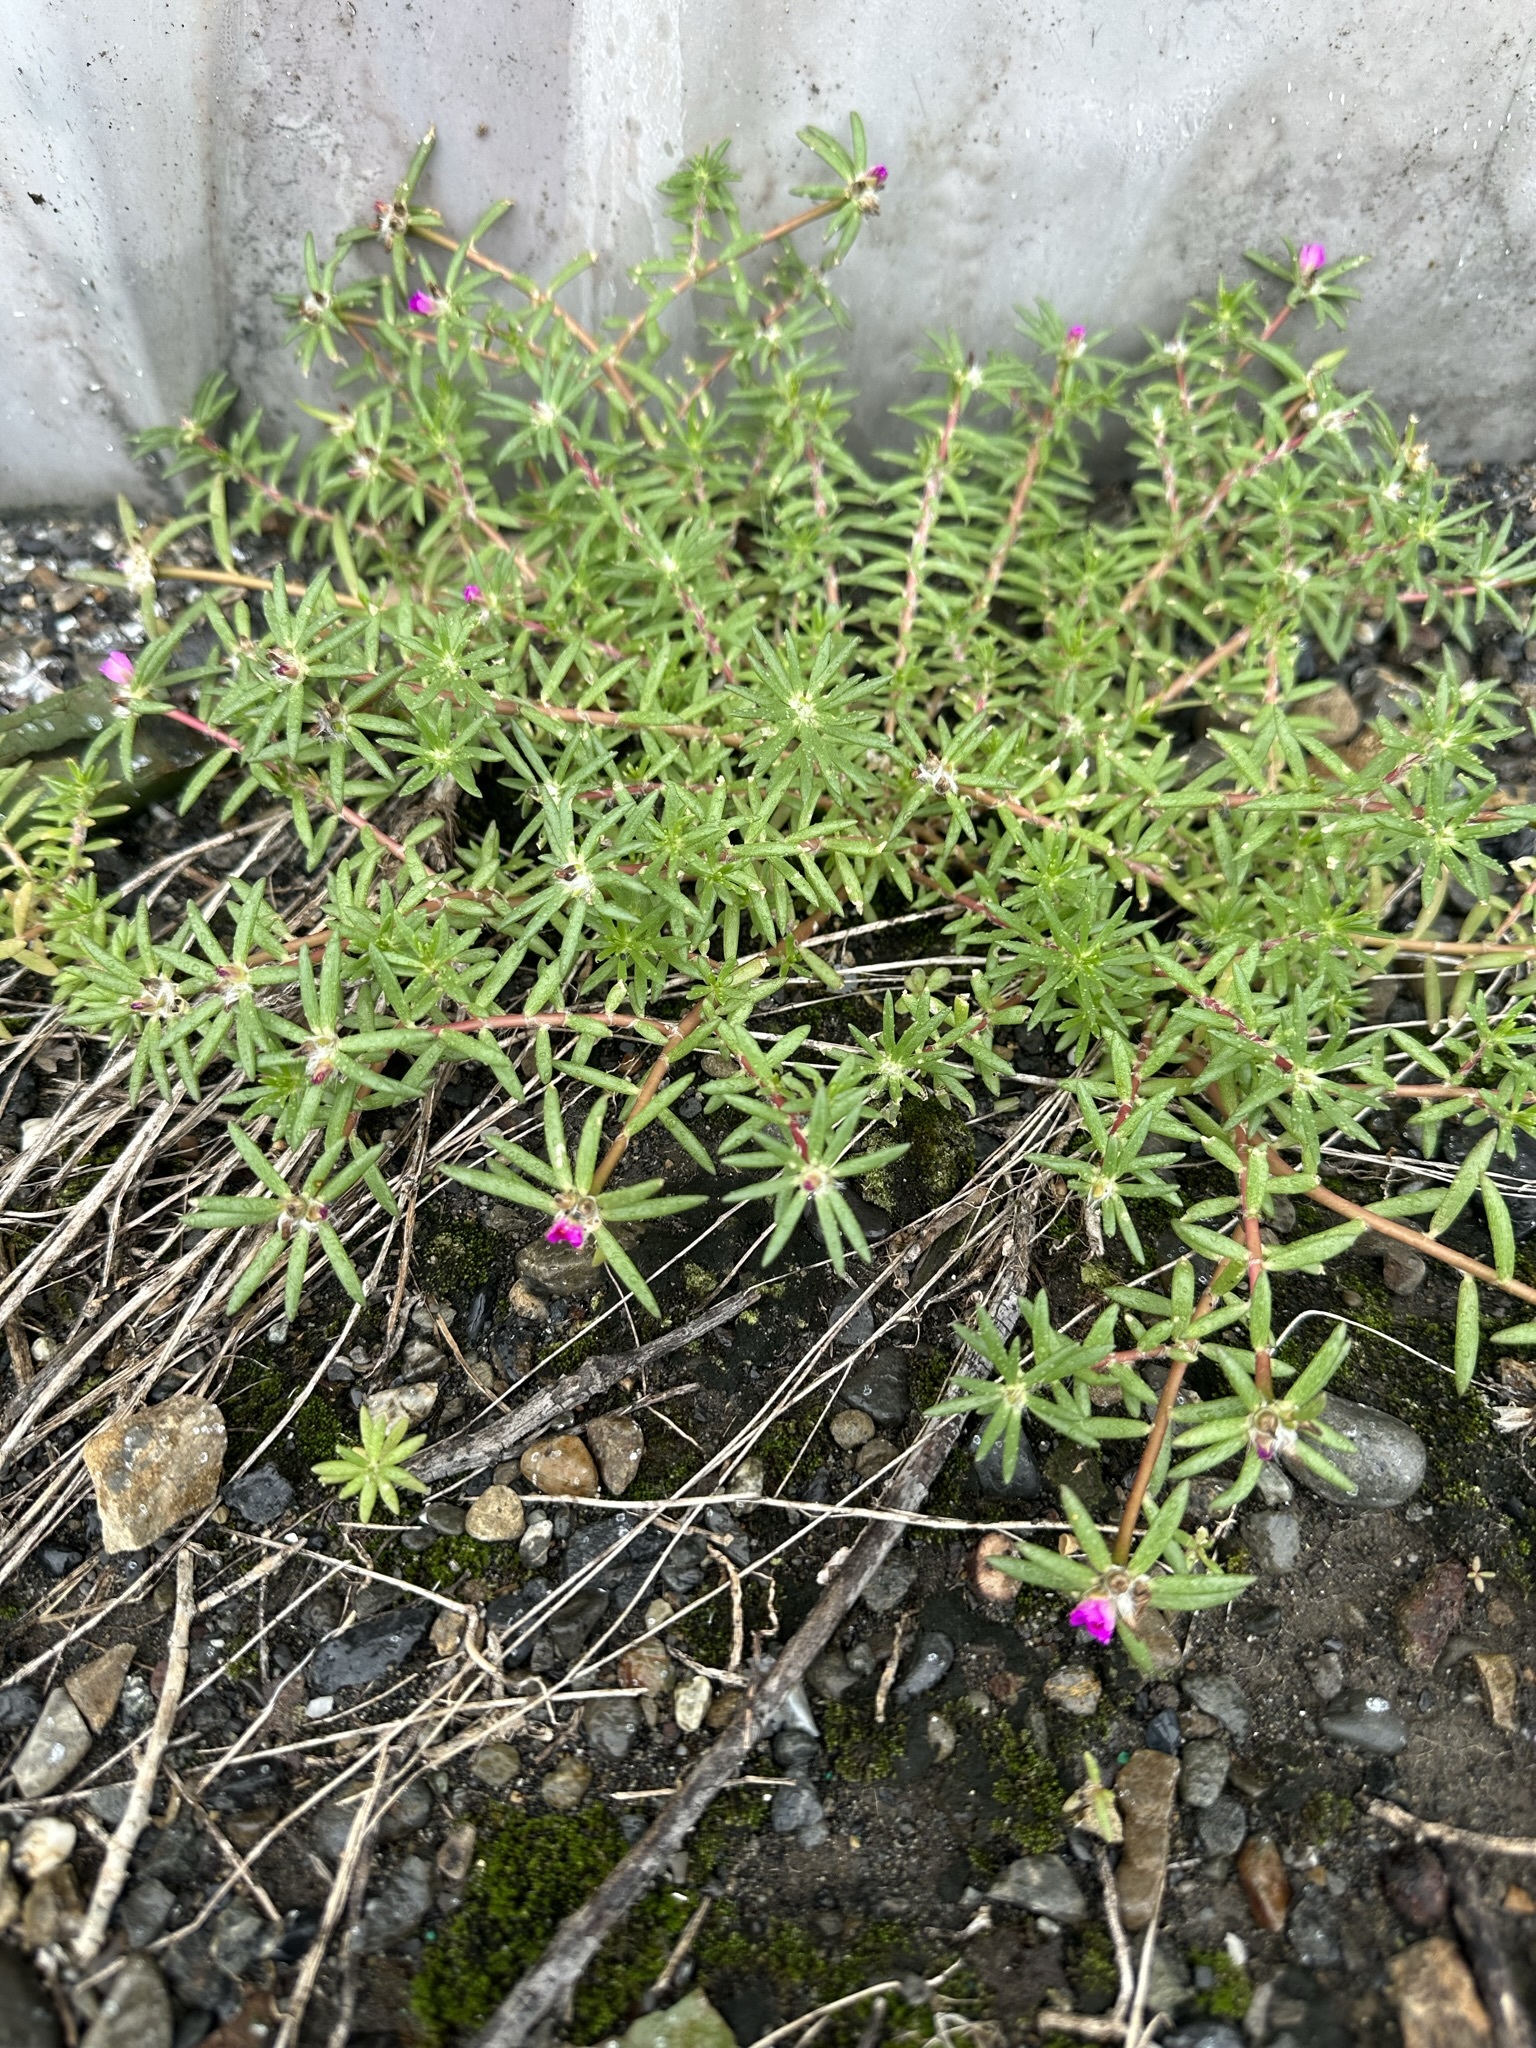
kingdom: Plantae
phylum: Tracheophyta
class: Magnoliopsida
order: Caryophyllales
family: Portulacaceae
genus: Portulaca
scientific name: Portulaca pilosa
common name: Kiss me quick
